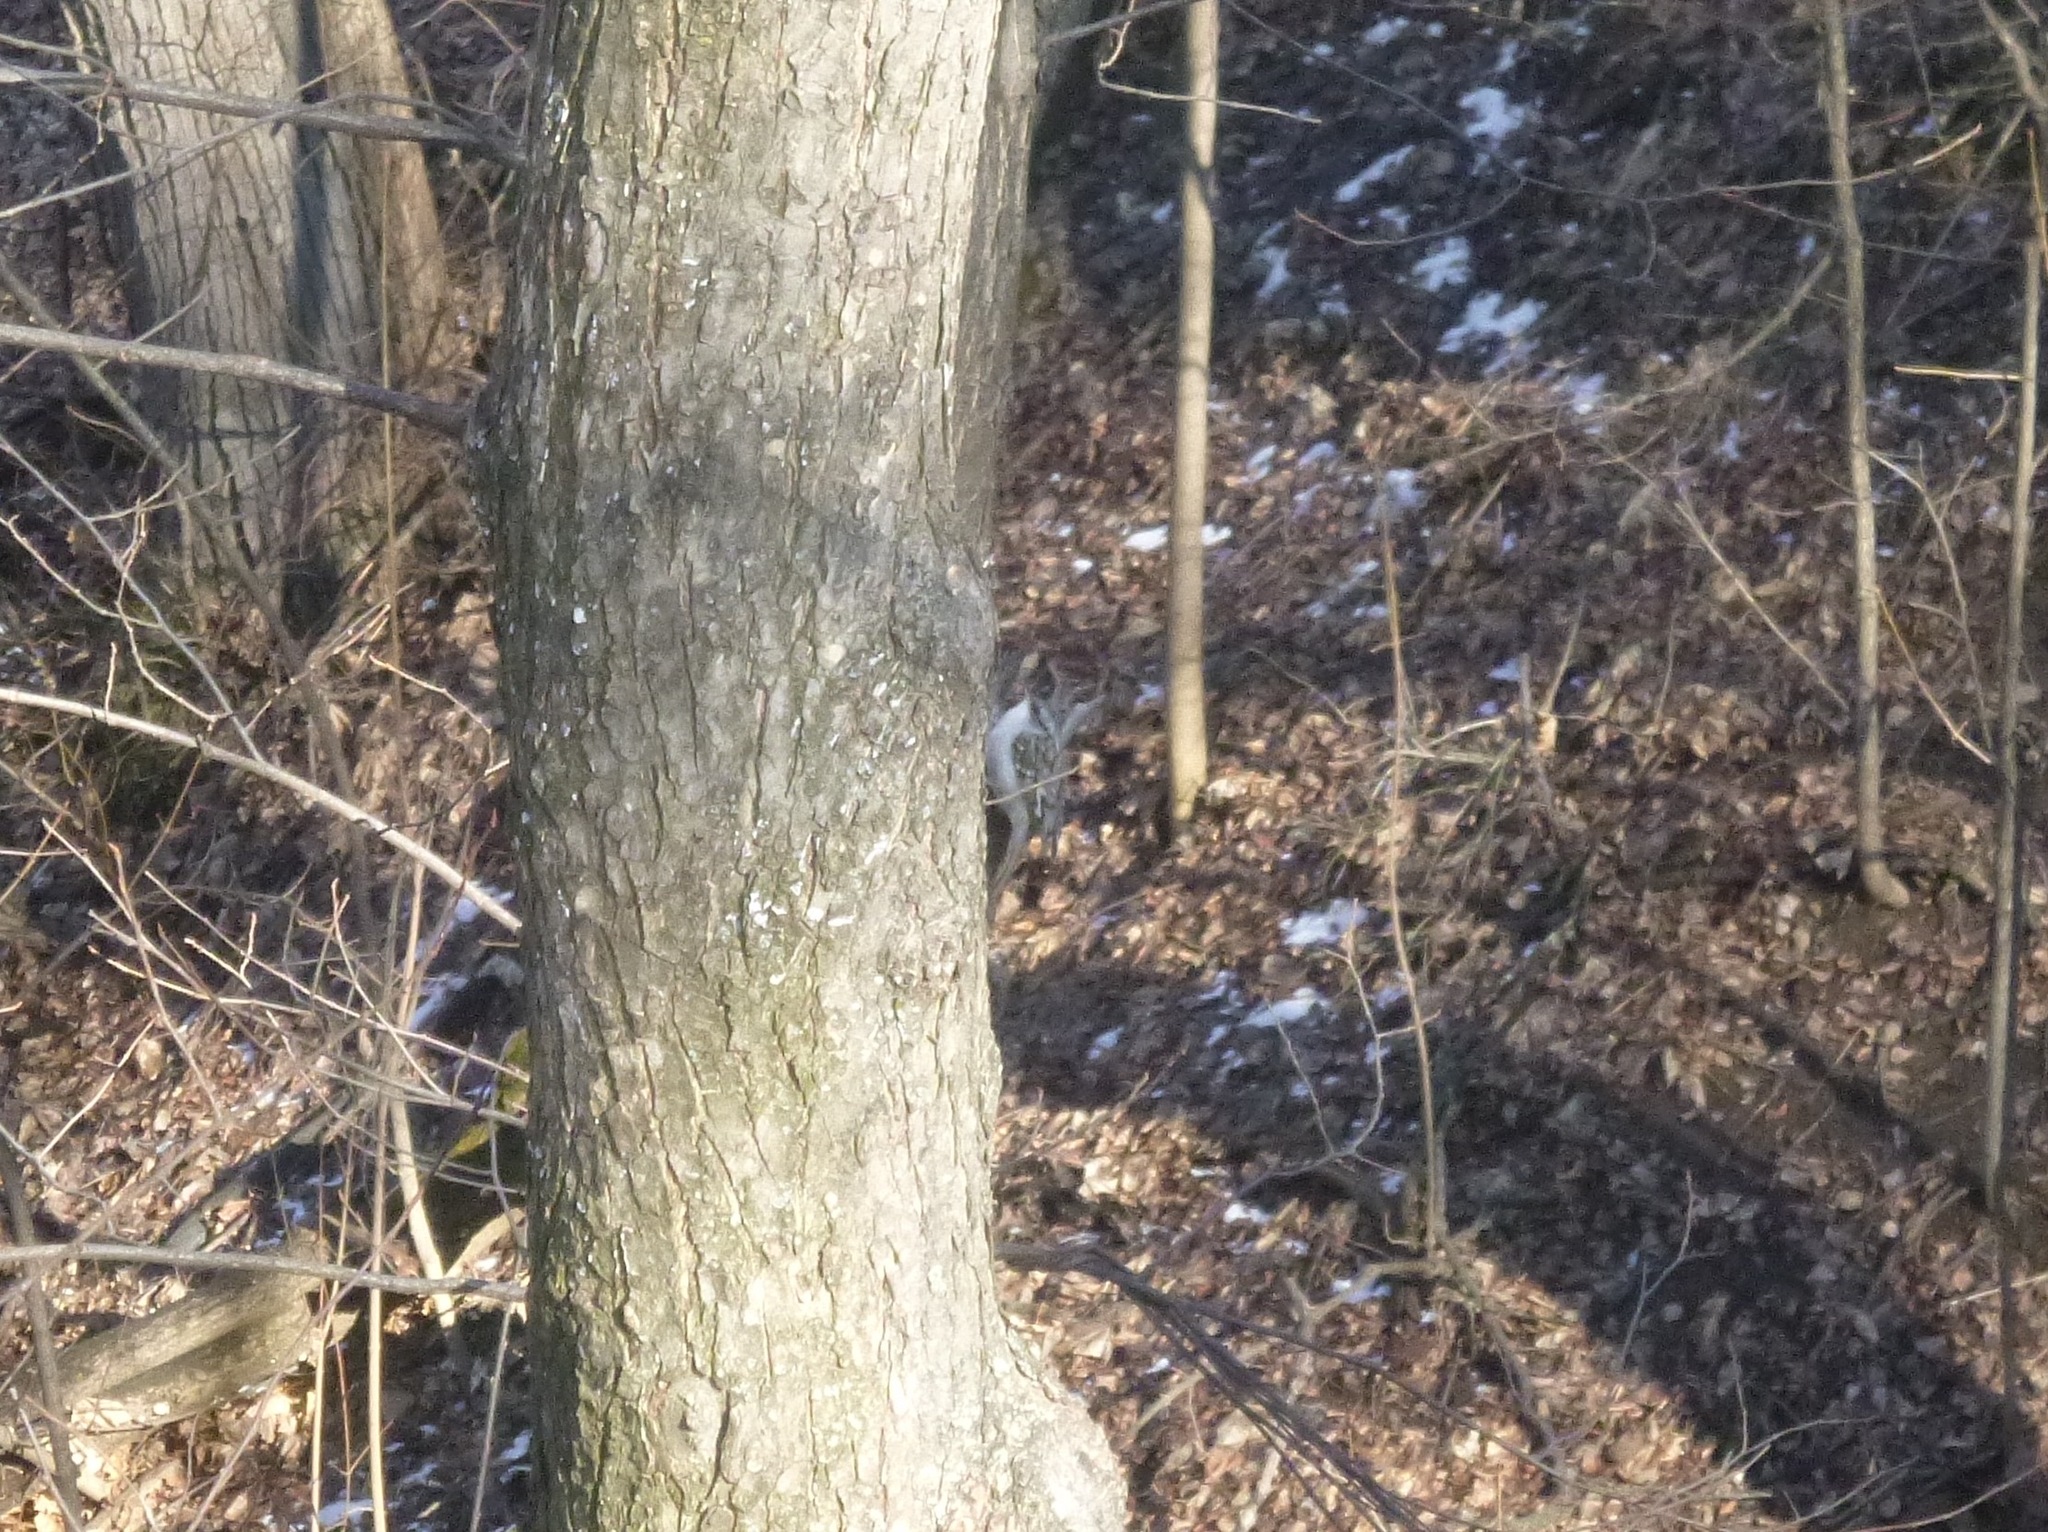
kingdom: Animalia
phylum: Chordata
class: Aves
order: Passeriformes
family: Certhiidae
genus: Certhia
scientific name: Certhia familiaris
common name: Eurasian treecreeper
